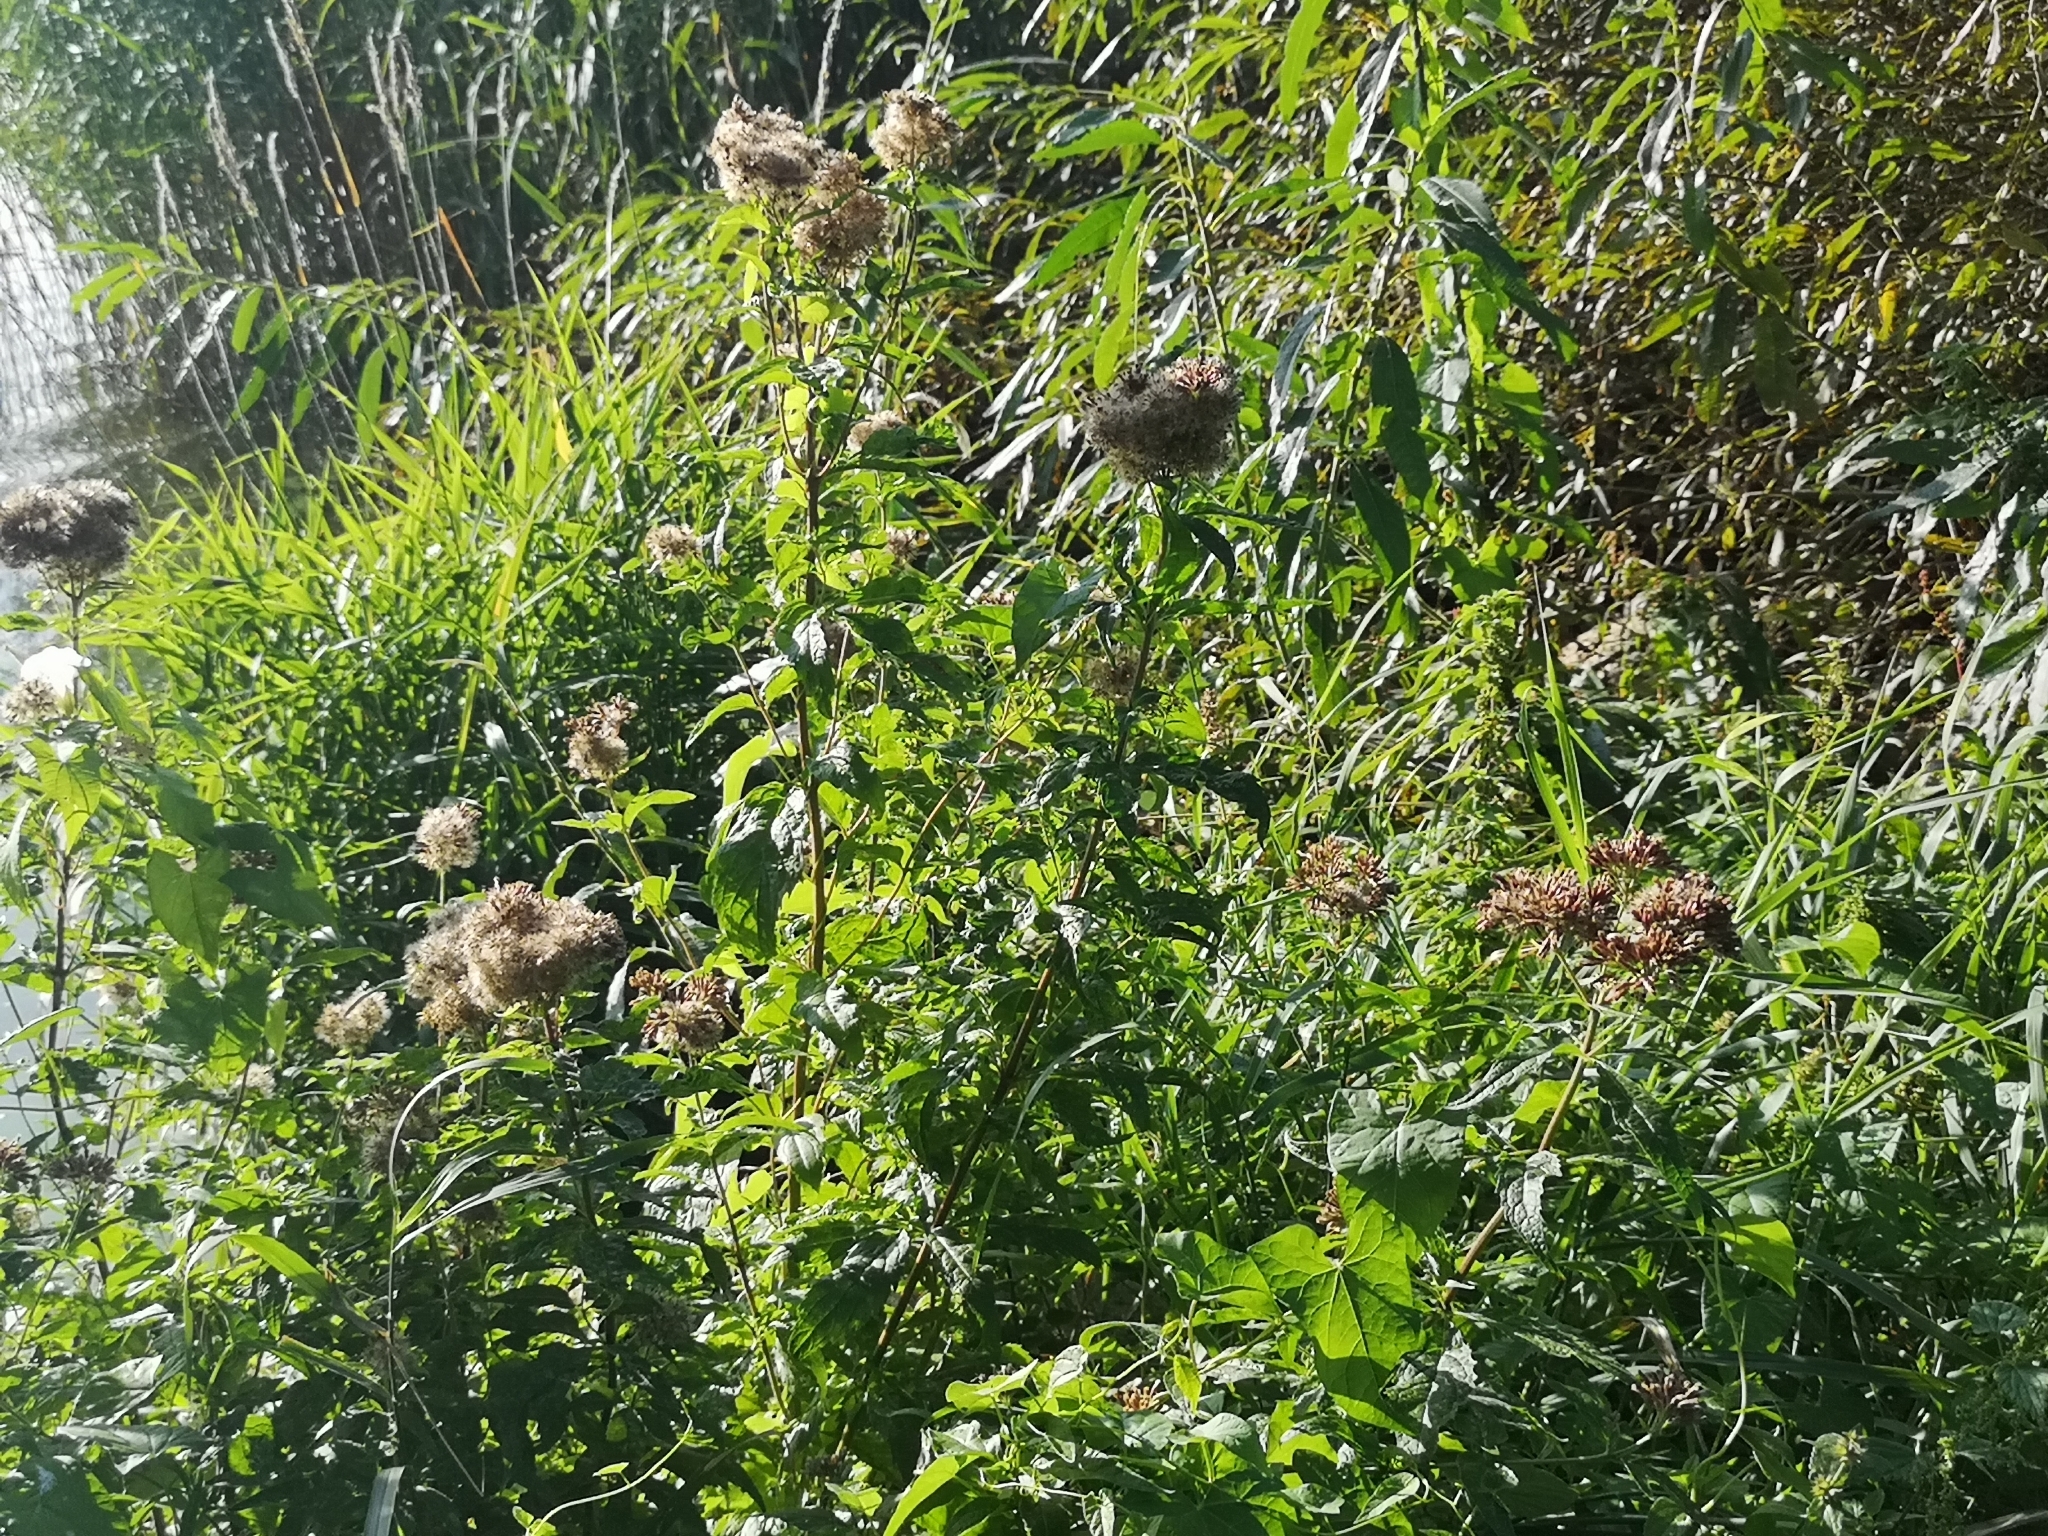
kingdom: Plantae
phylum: Tracheophyta
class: Magnoliopsida
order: Asterales
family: Asteraceae
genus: Eupatorium
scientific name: Eupatorium cannabinum
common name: Hemp-agrimony
